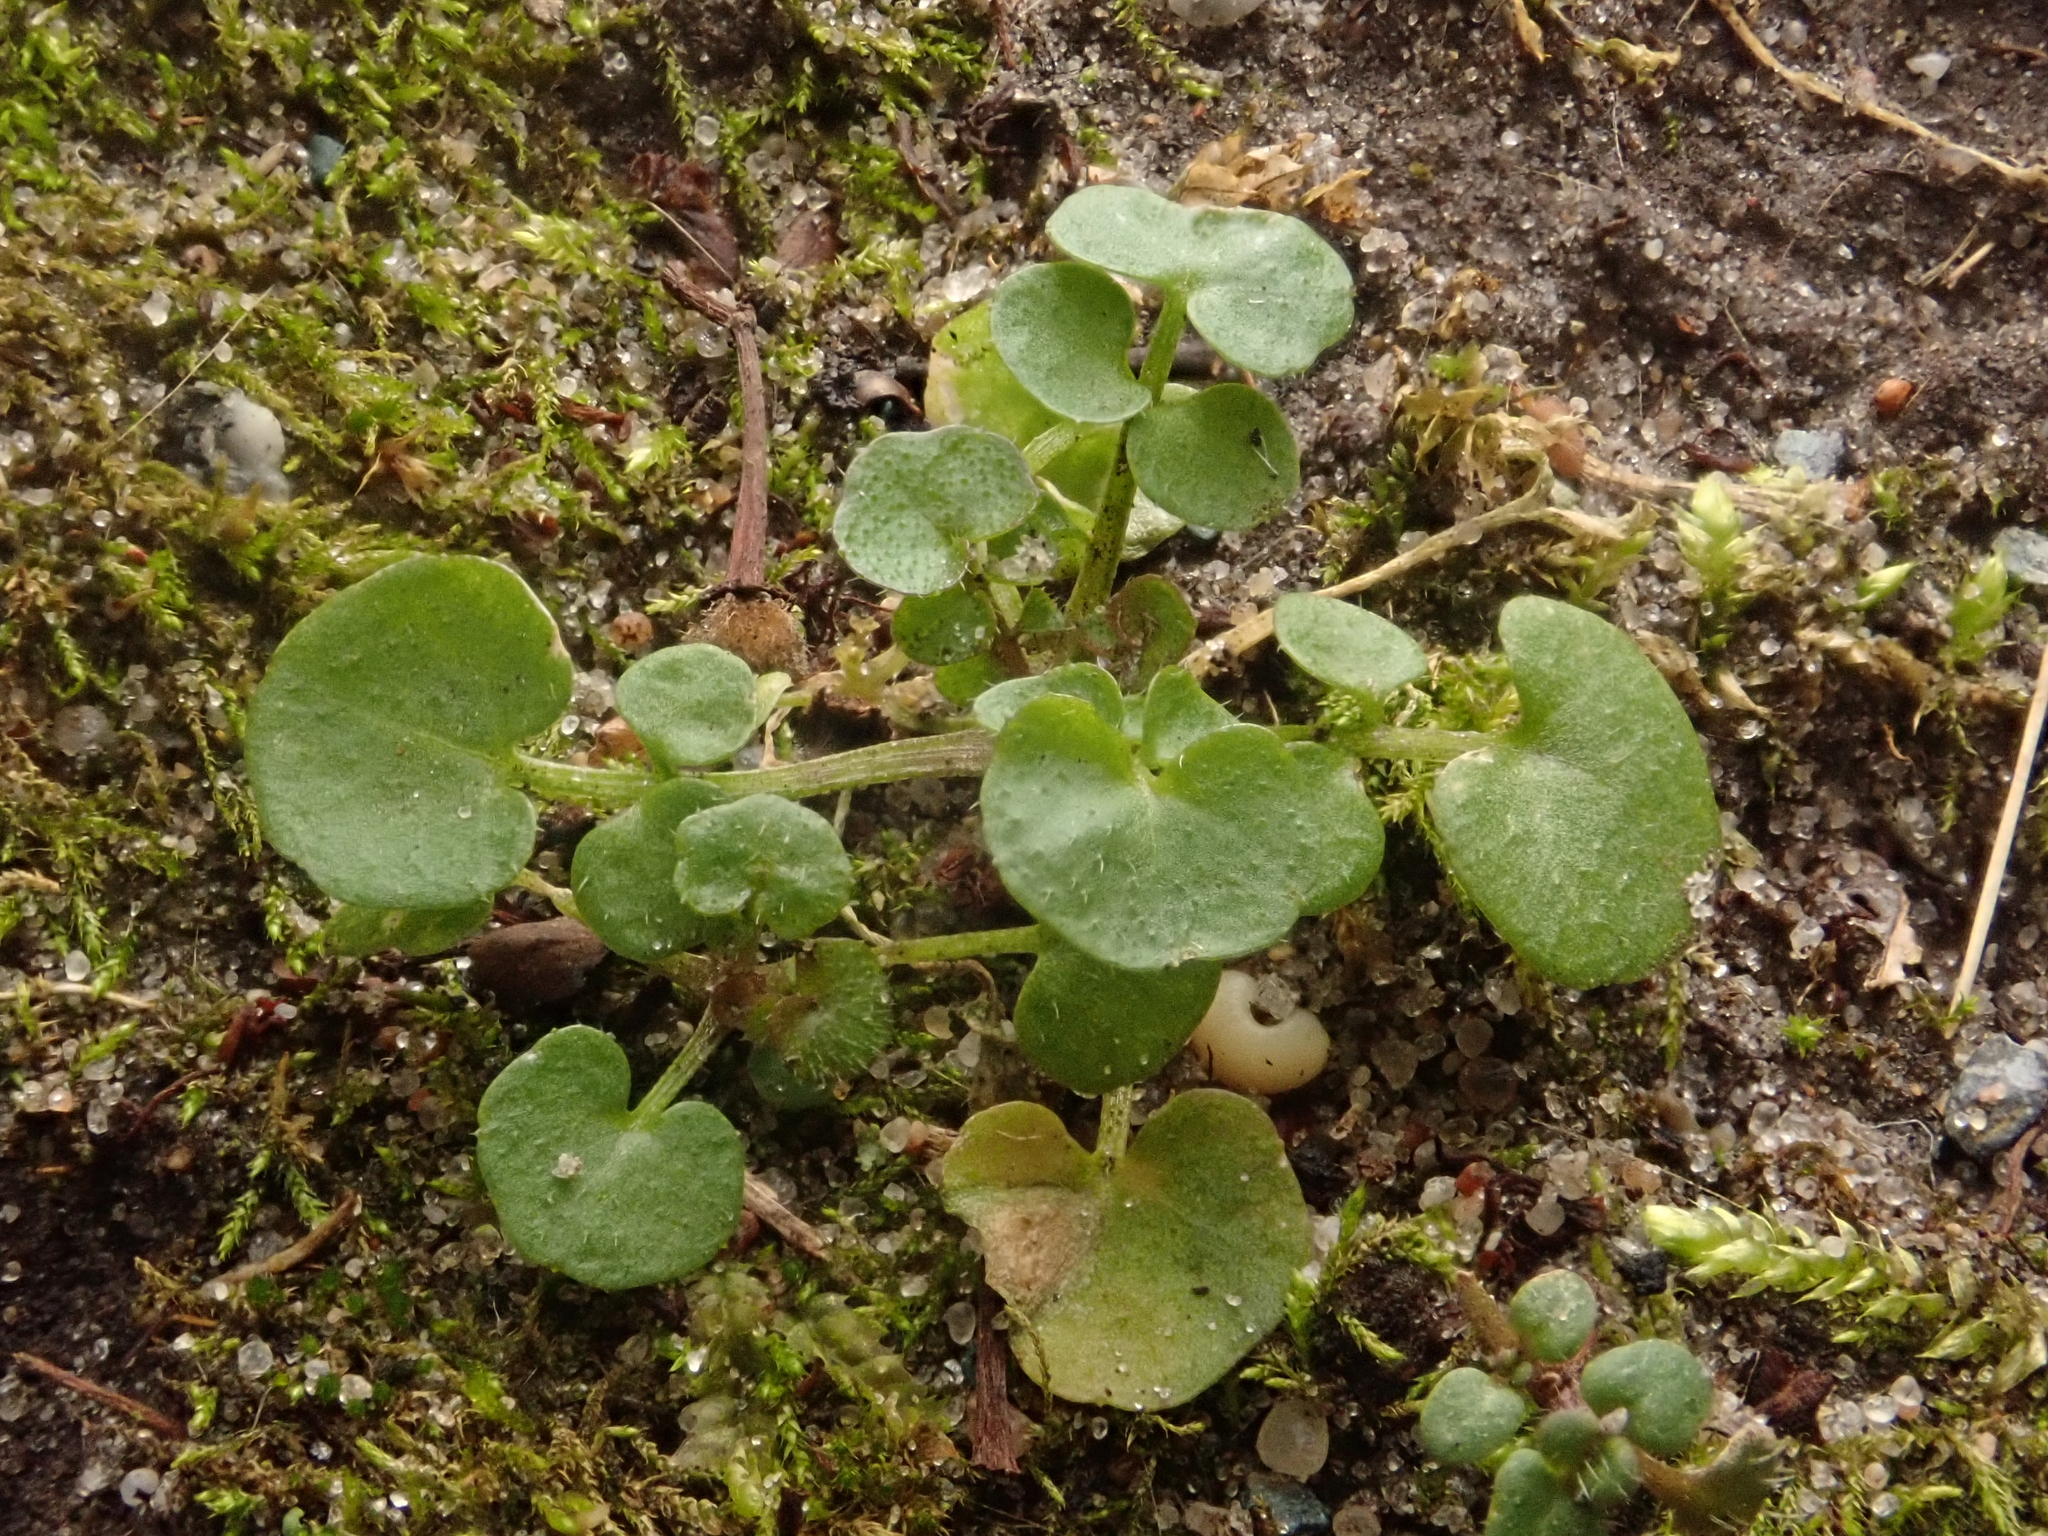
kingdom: Plantae
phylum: Tracheophyta
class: Magnoliopsida
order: Brassicales
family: Brassicaceae
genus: Cardamine
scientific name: Cardamine hirsuta
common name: Hairy bittercress
